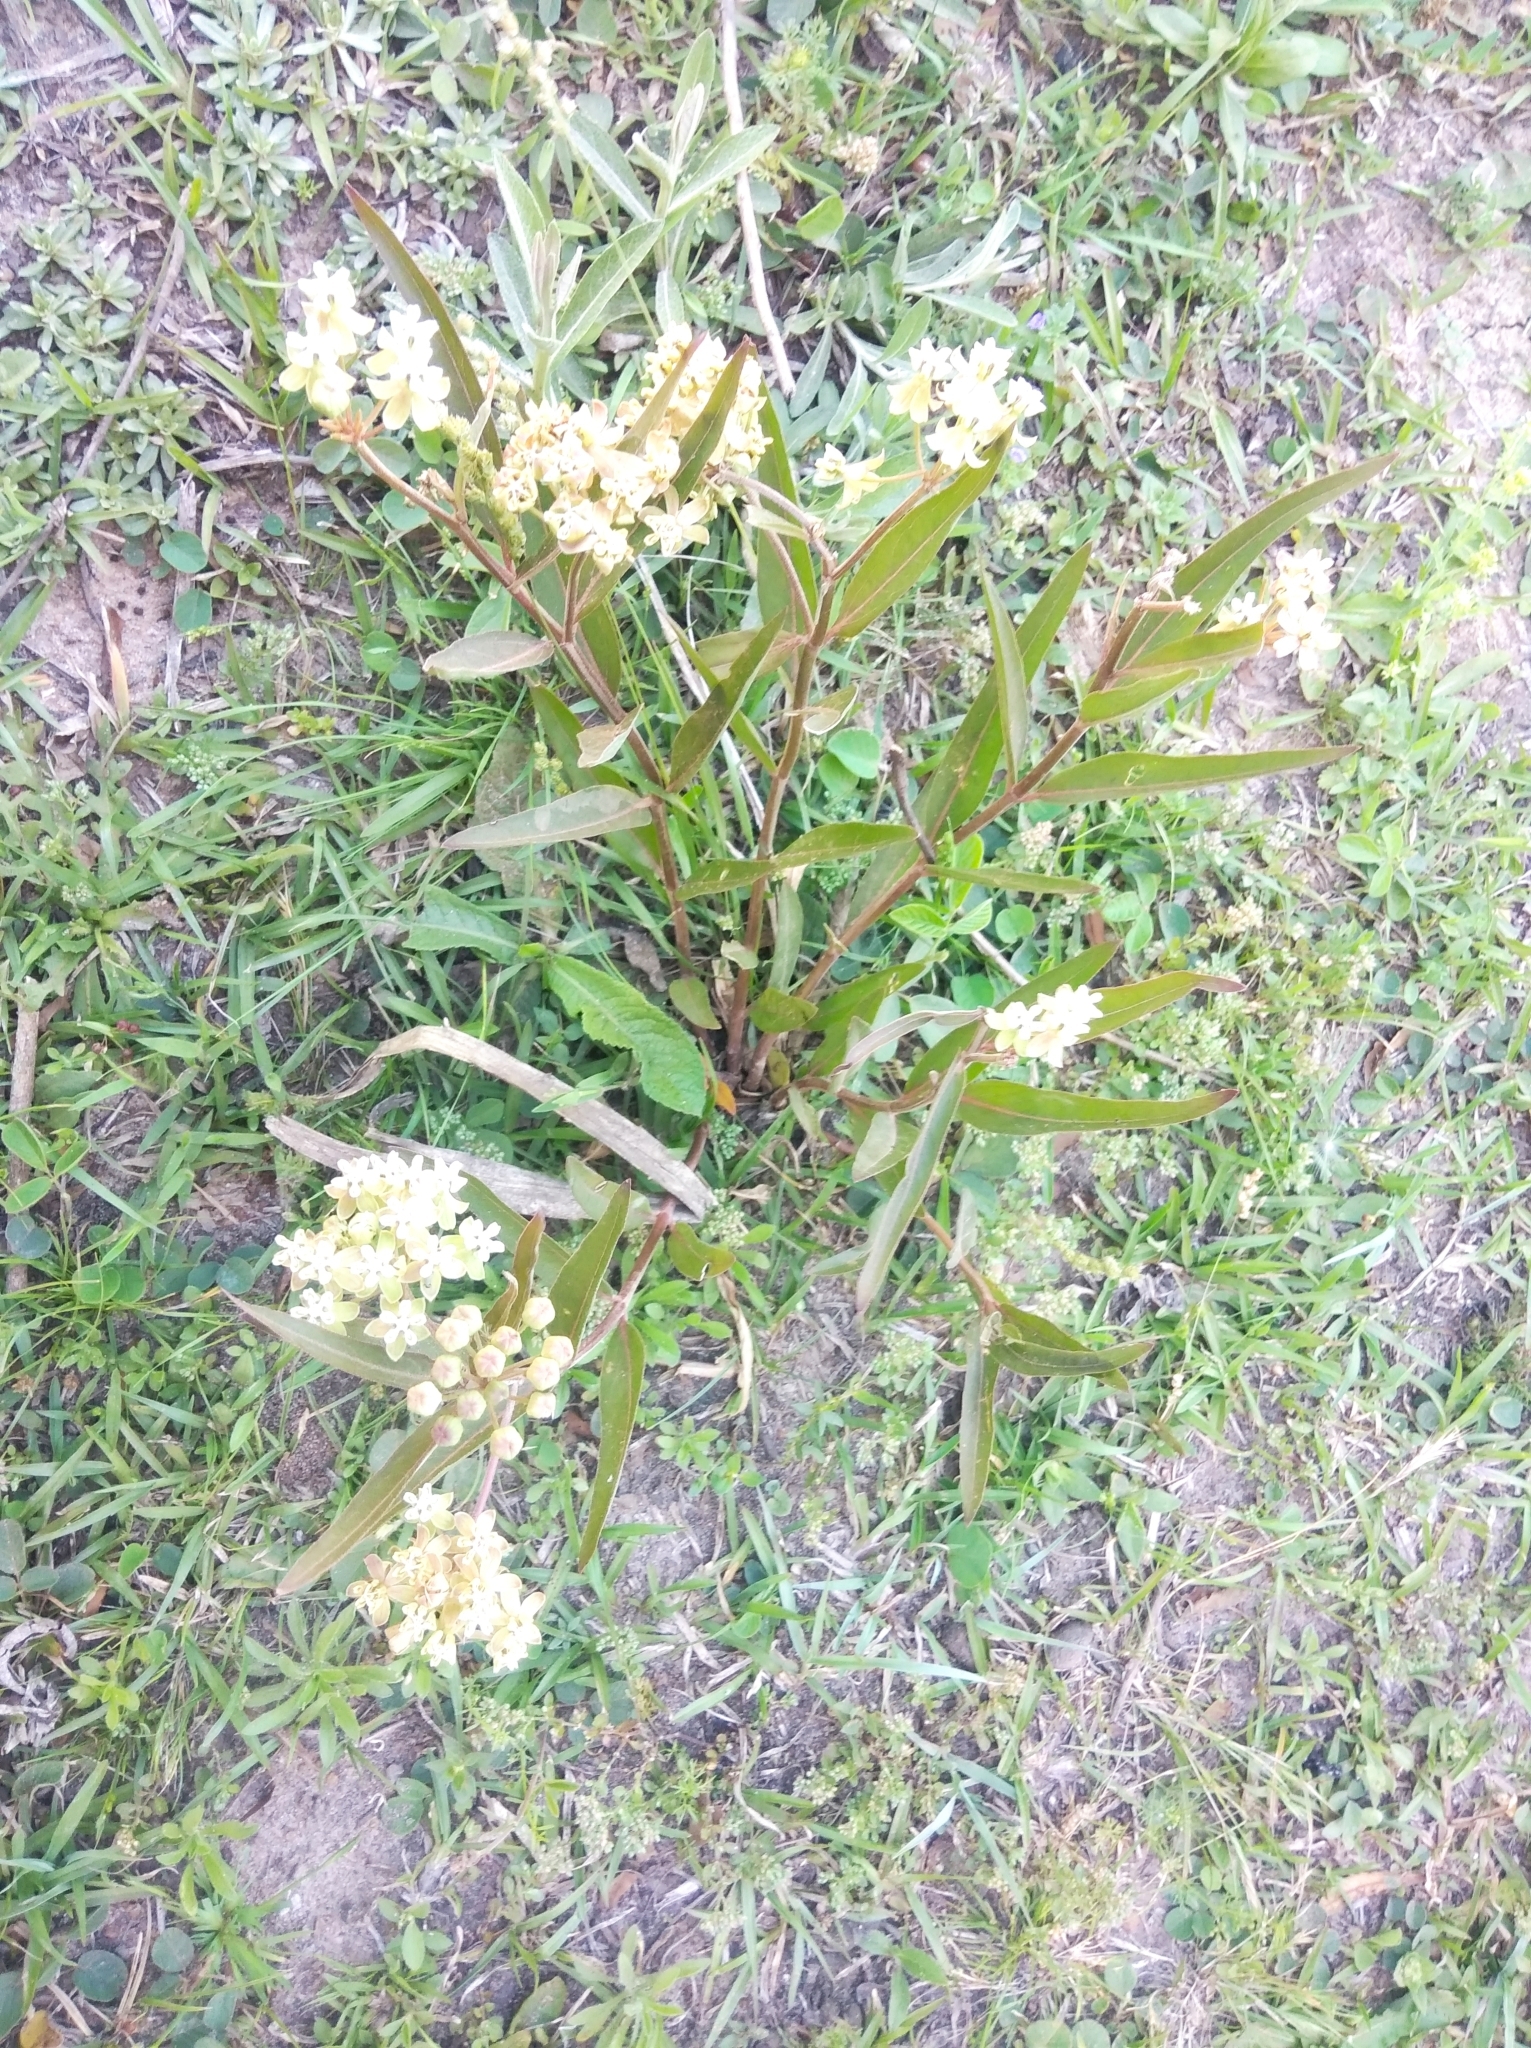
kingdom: Plantae
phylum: Tracheophyta
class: Magnoliopsida
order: Gentianales
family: Apocynaceae
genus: Asclepias
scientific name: Asclepias mellodora
